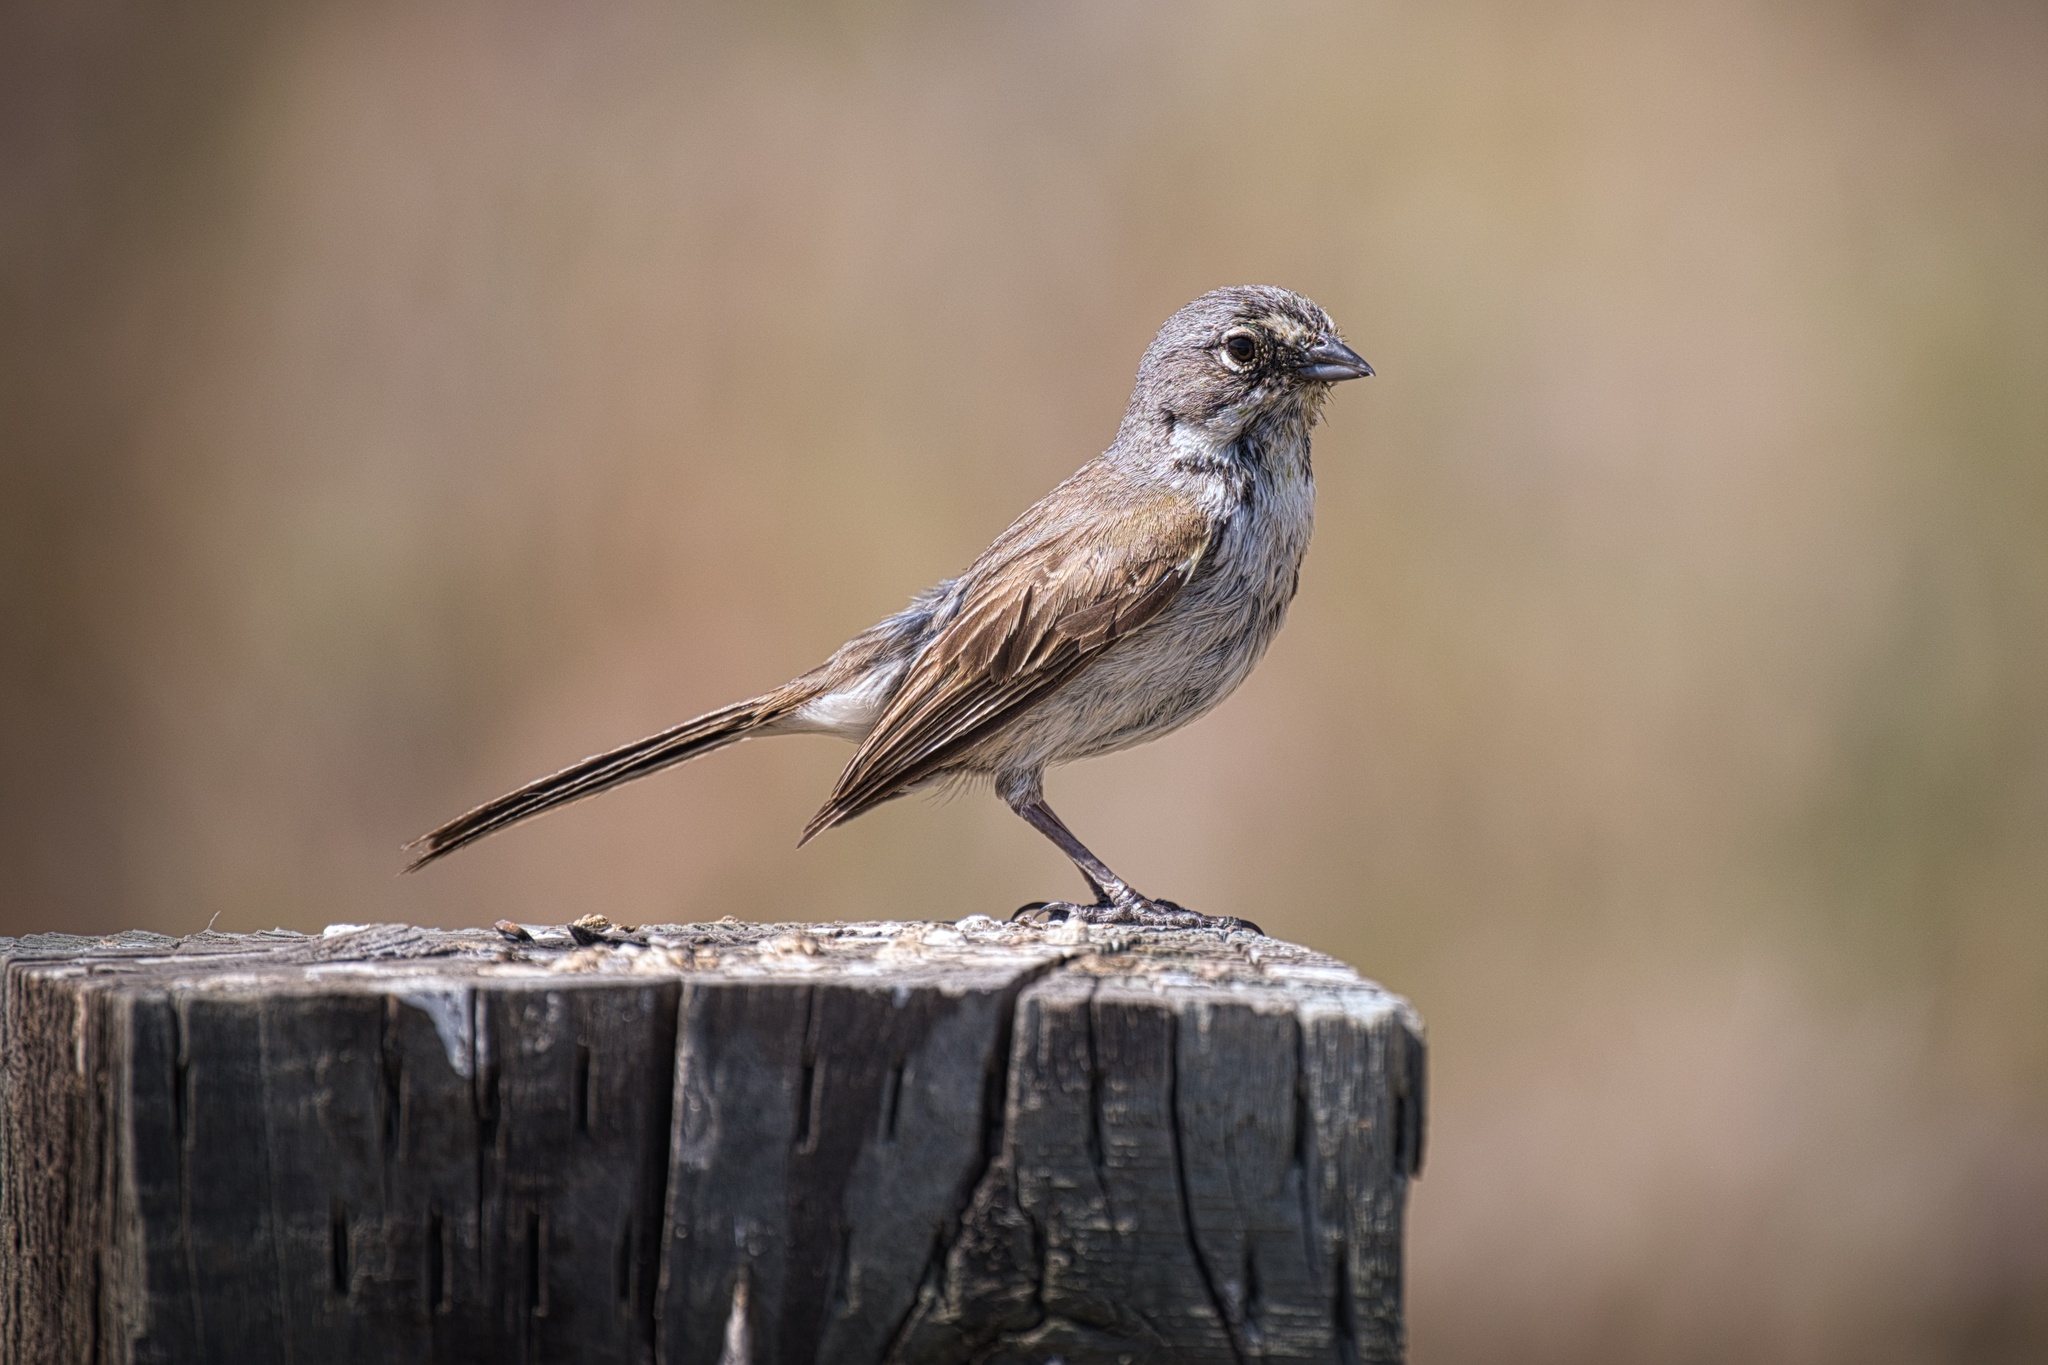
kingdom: Animalia
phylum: Chordata
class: Aves
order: Passeriformes
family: Passerellidae
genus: Artemisiospiza
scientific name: Artemisiospiza belli
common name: Bell's sparrow
